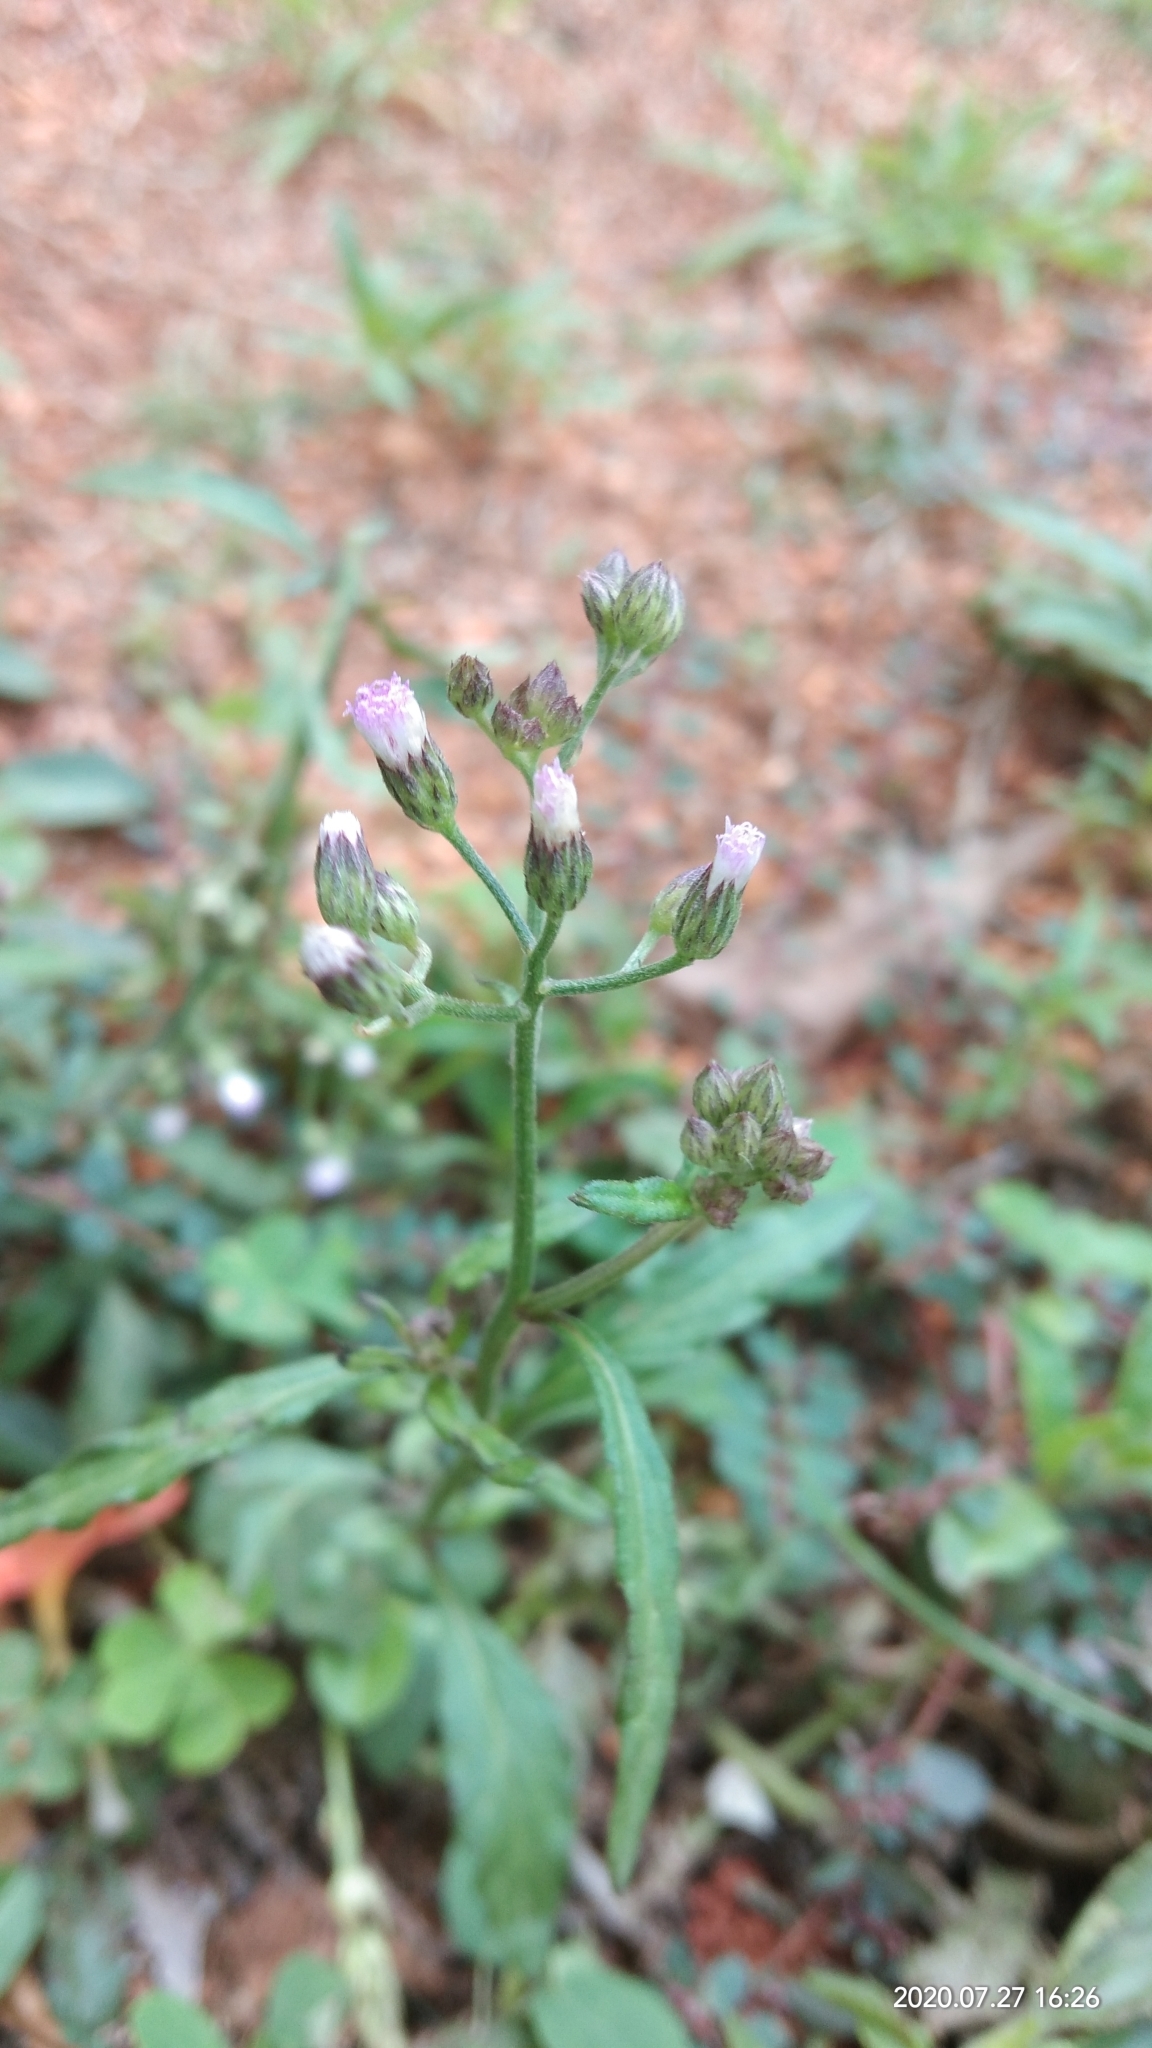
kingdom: Plantae
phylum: Tracheophyta
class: Magnoliopsida
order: Asterales
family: Asteraceae
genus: Cyanthillium
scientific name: Cyanthillium cinereum
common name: Little ironweed
